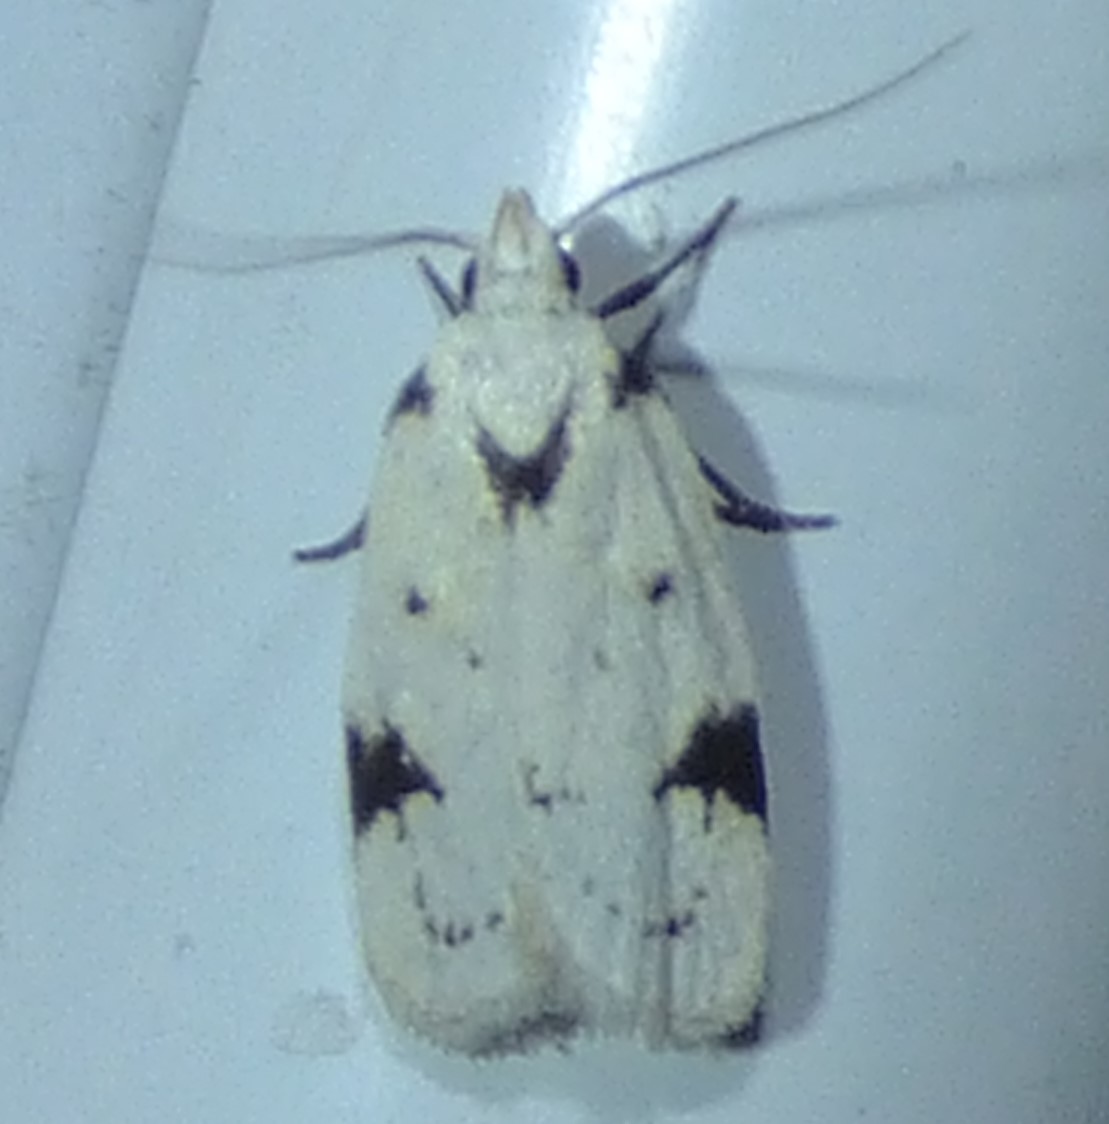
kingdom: Animalia
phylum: Arthropoda
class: Insecta
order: Lepidoptera
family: Oecophoridae
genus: Inga
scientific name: Inga sparsiciliella
